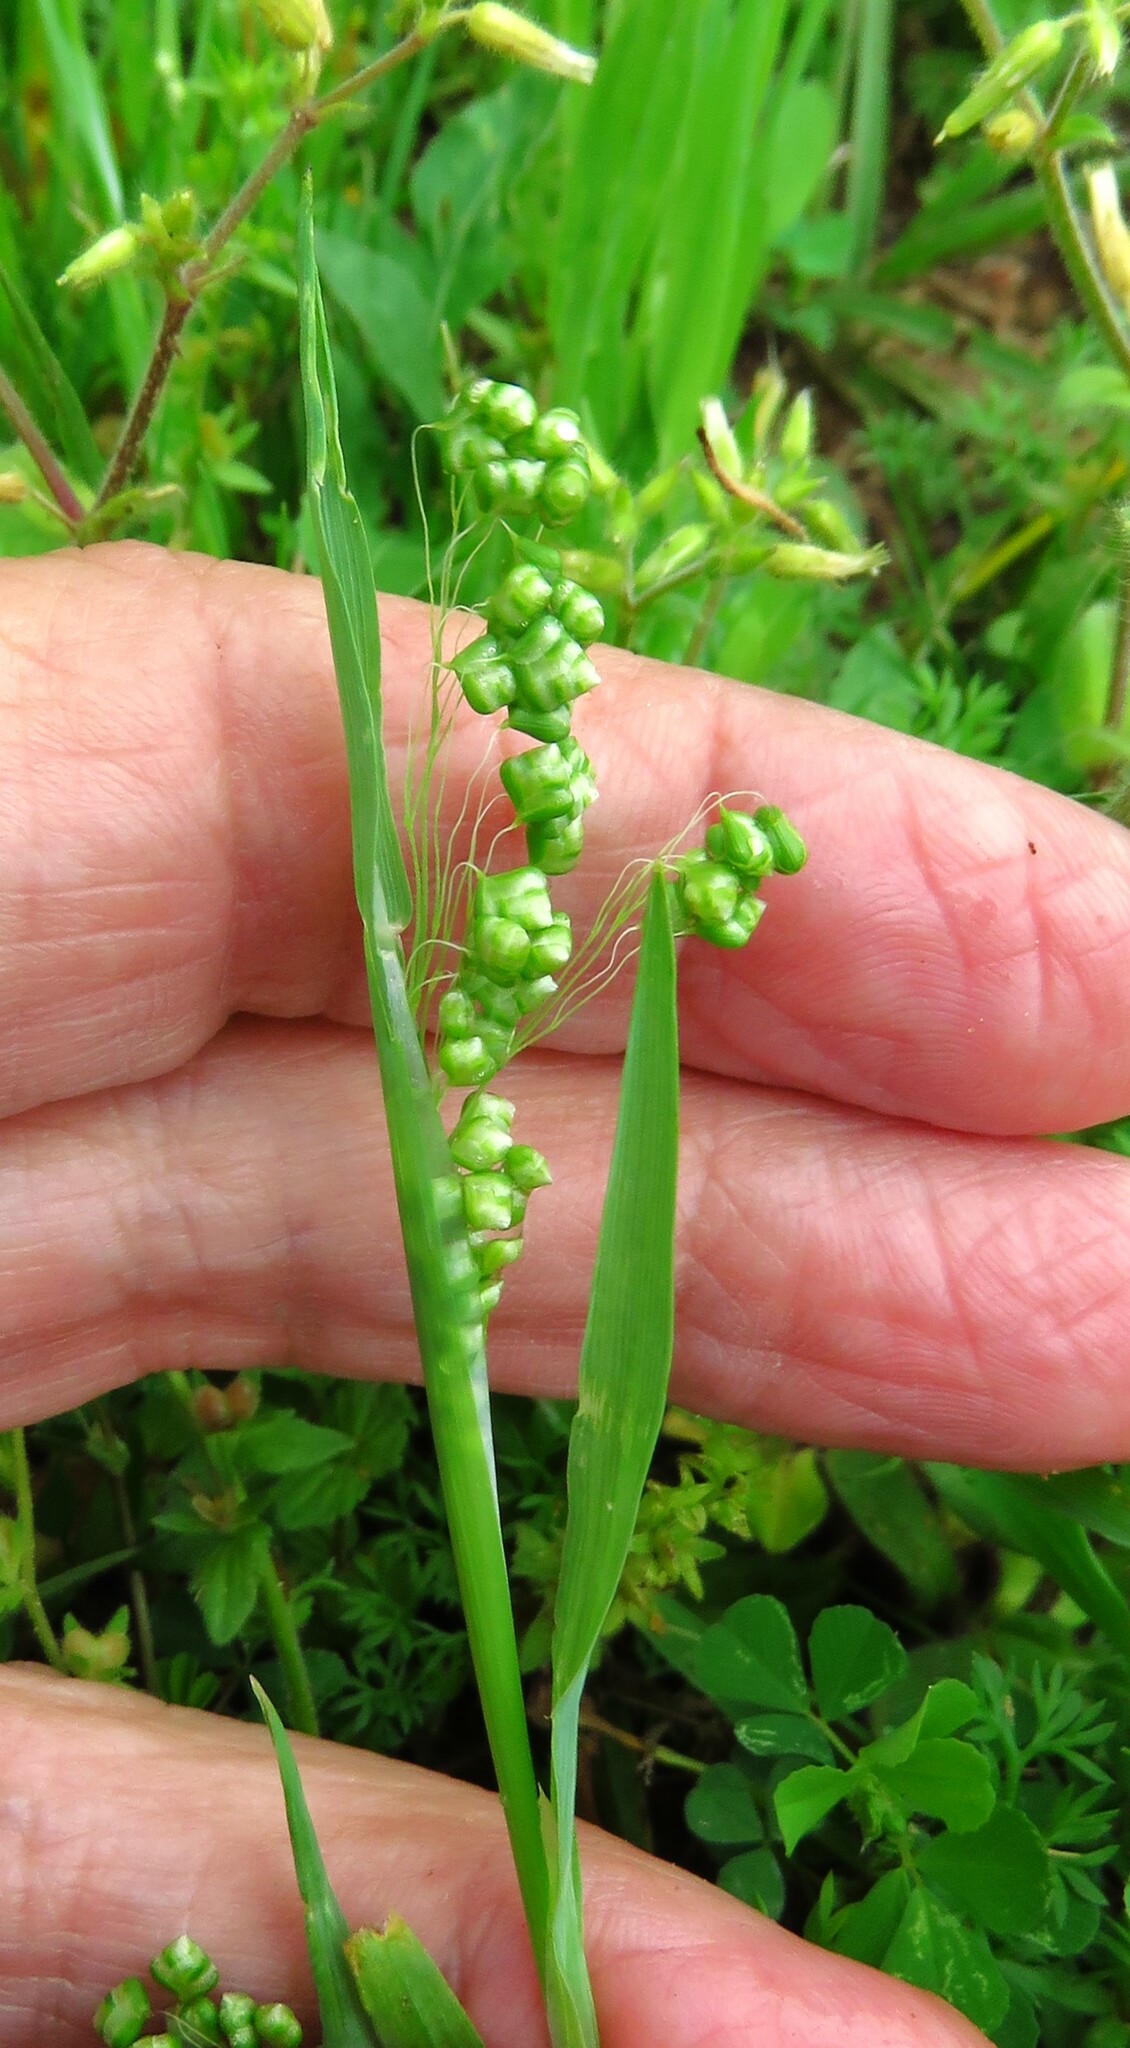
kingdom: Plantae
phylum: Tracheophyta
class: Liliopsida
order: Poales
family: Poaceae
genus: Briza
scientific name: Briza minor
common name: Lesser quaking-grass
